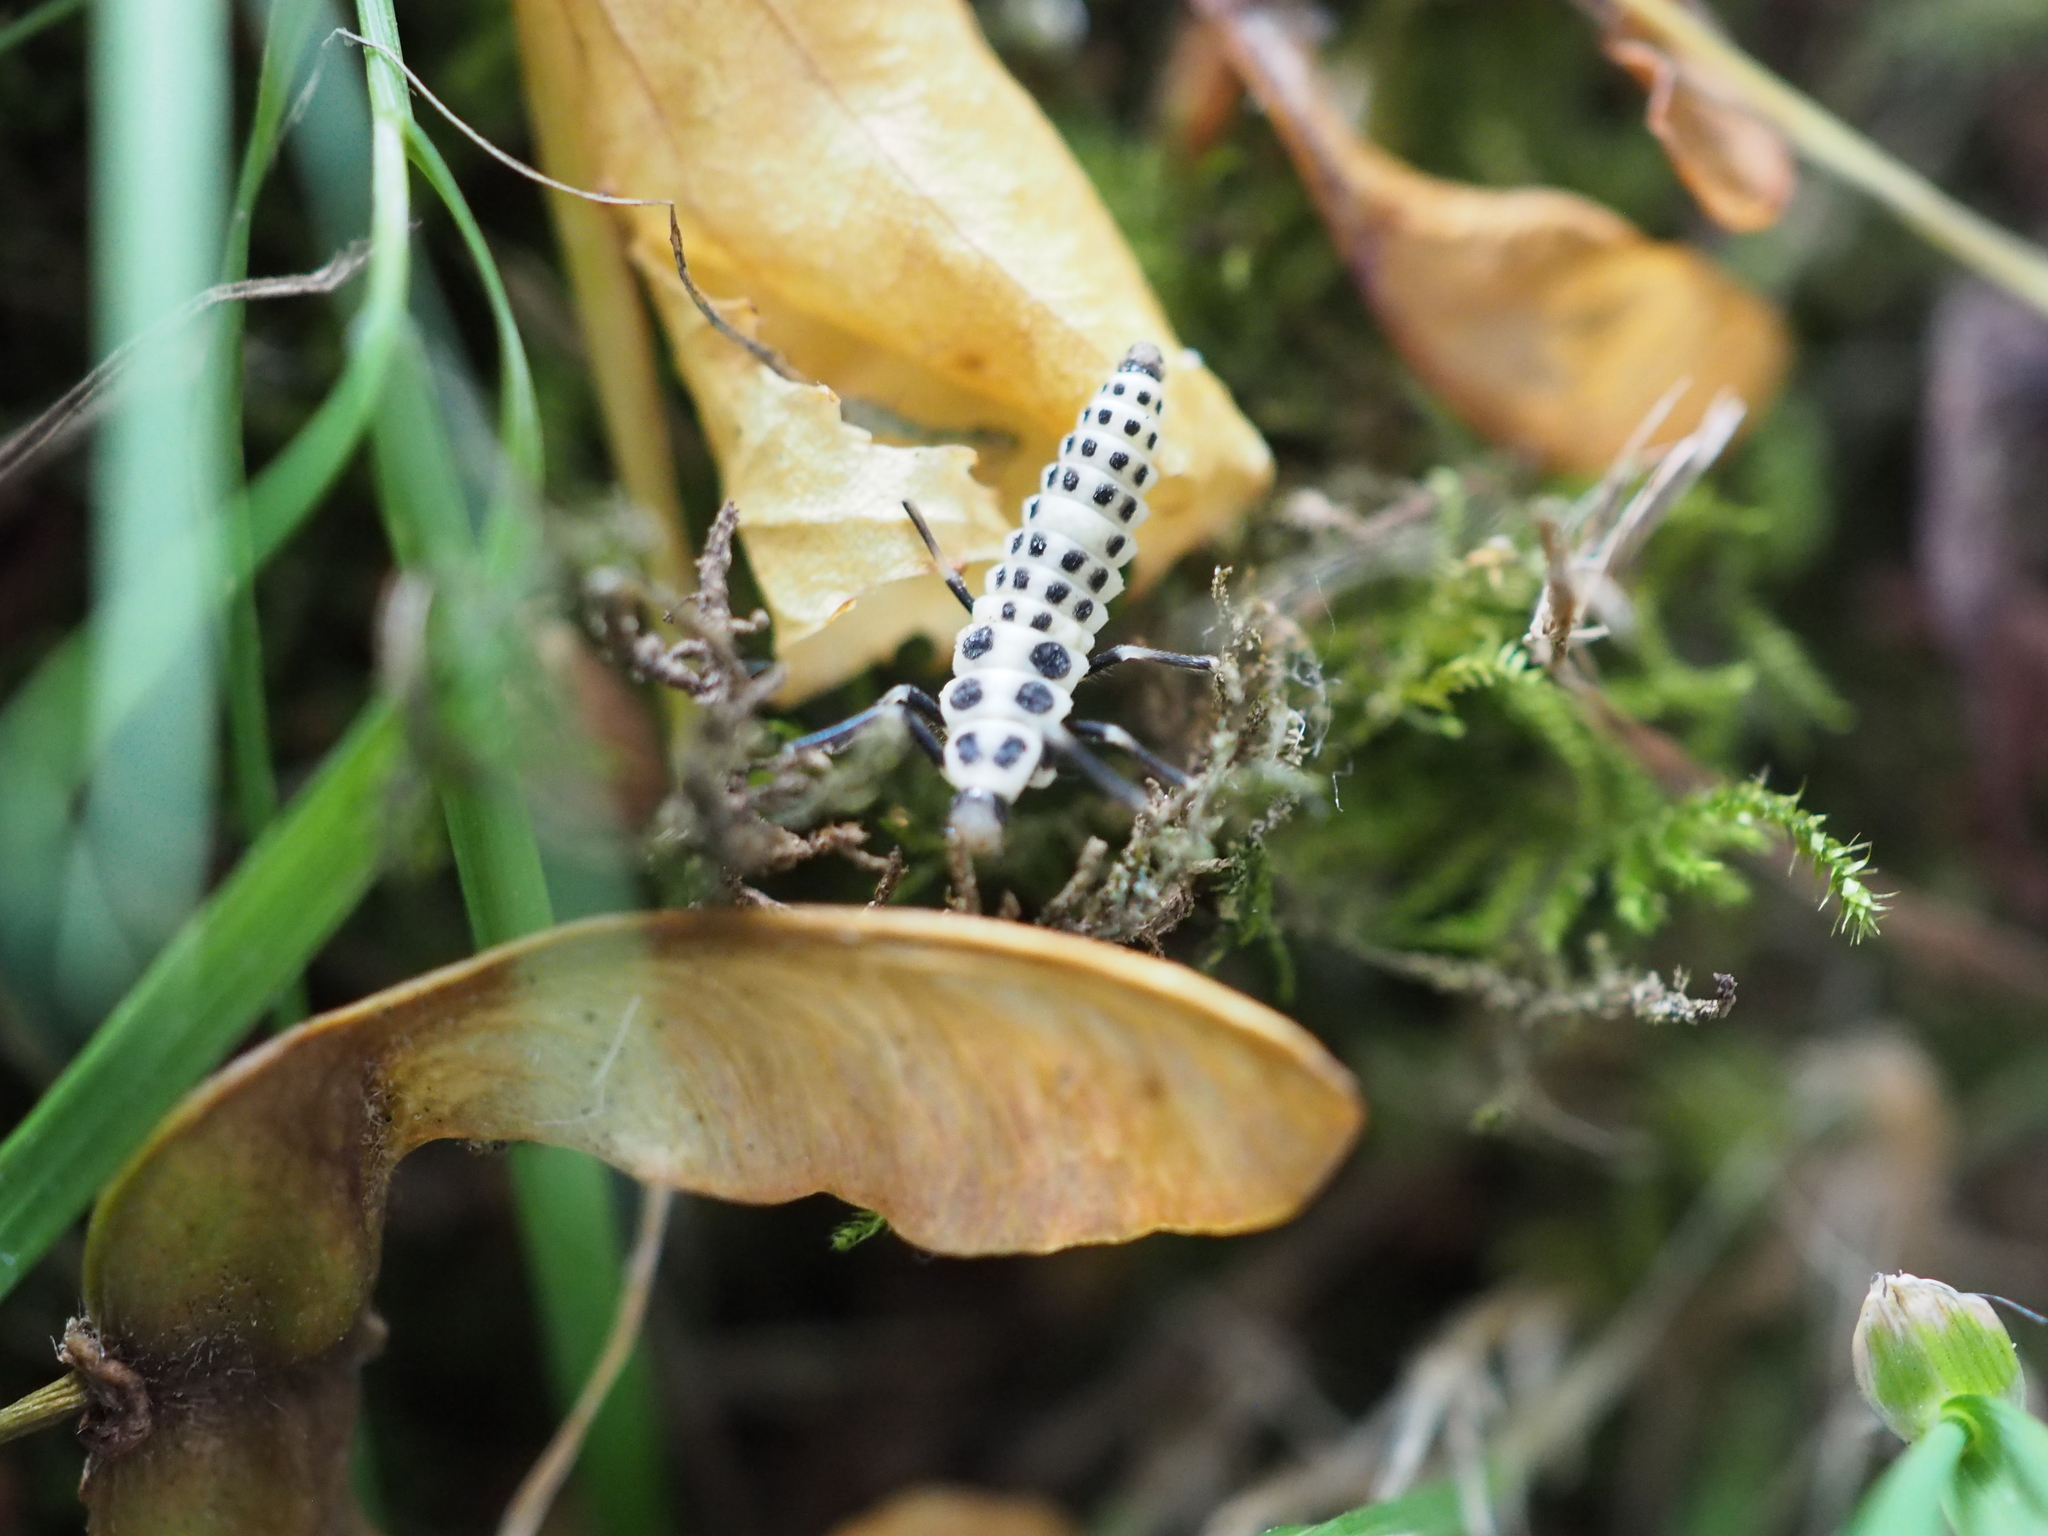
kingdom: Animalia
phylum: Arthropoda
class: Insecta
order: Coleoptera
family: Coccinellidae
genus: Calvia
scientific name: Calvia decemguttata
